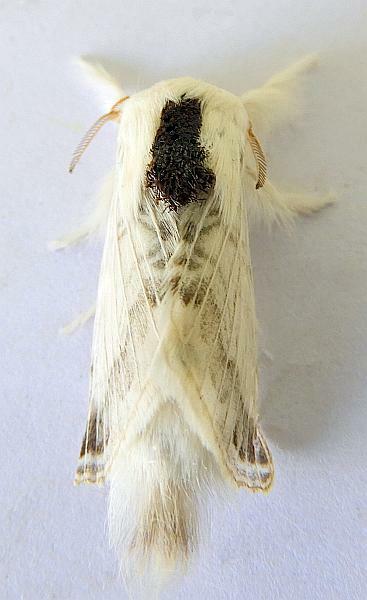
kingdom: Animalia
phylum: Arthropoda
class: Insecta
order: Lepidoptera
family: Lasiocampidae
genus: Tolype
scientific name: Tolype austella
